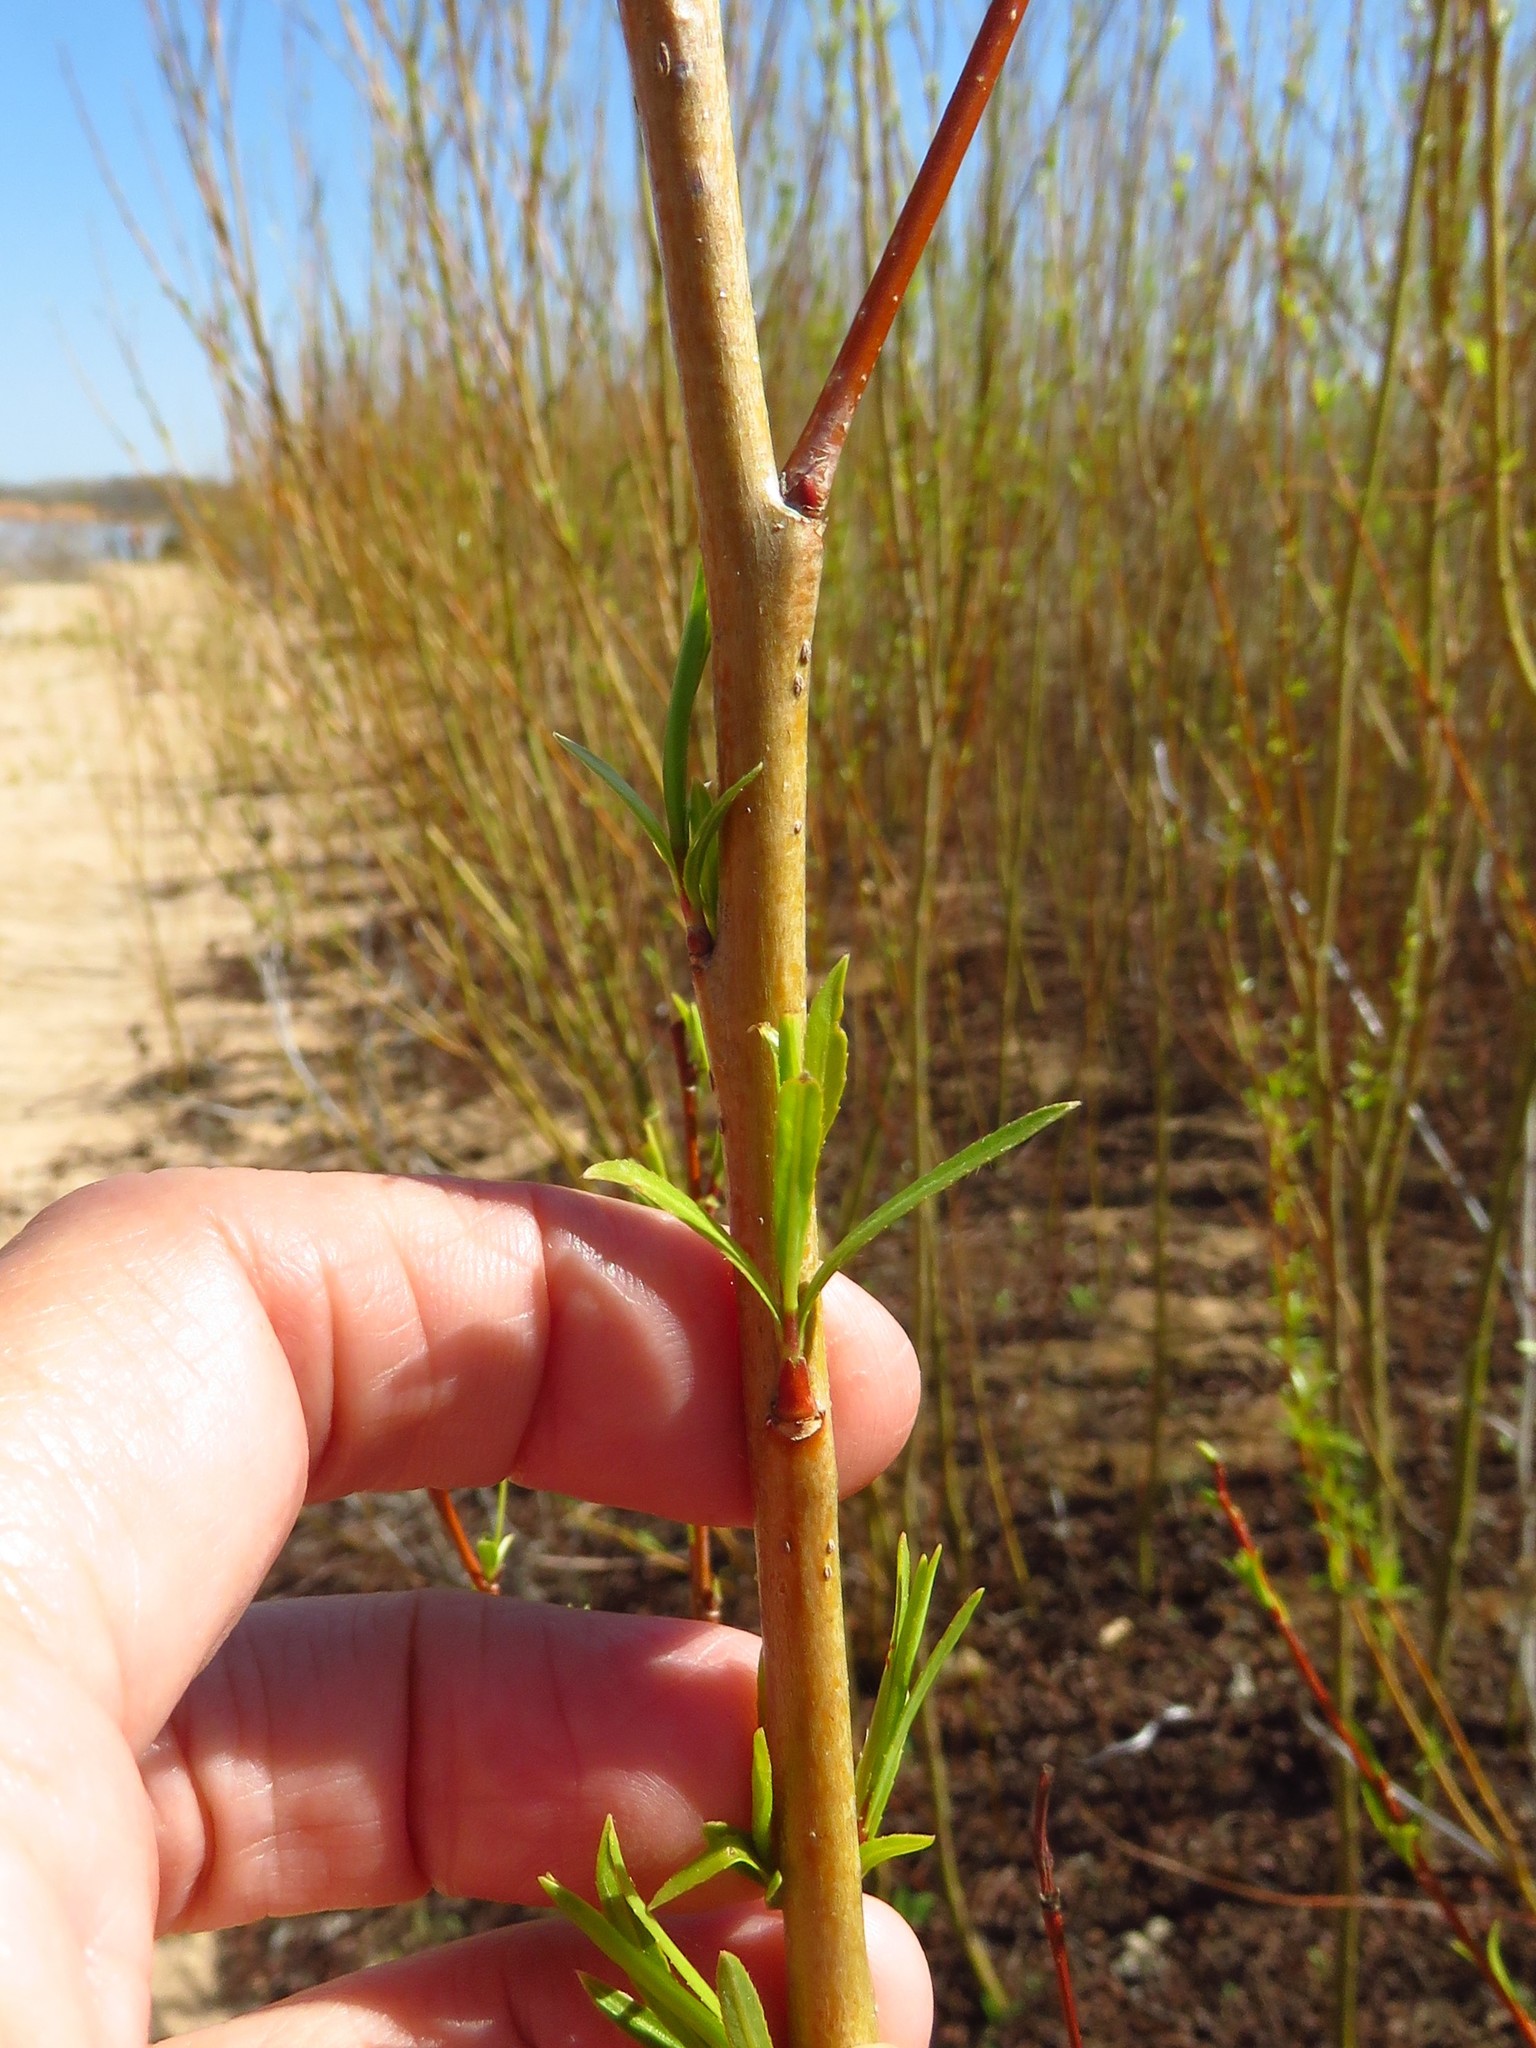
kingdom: Plantae
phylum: Tracheophyta
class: Magnoliopsida
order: Malpighiales
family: Salicaceae
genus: Salix
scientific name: Salix interior
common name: Sandbar willow
